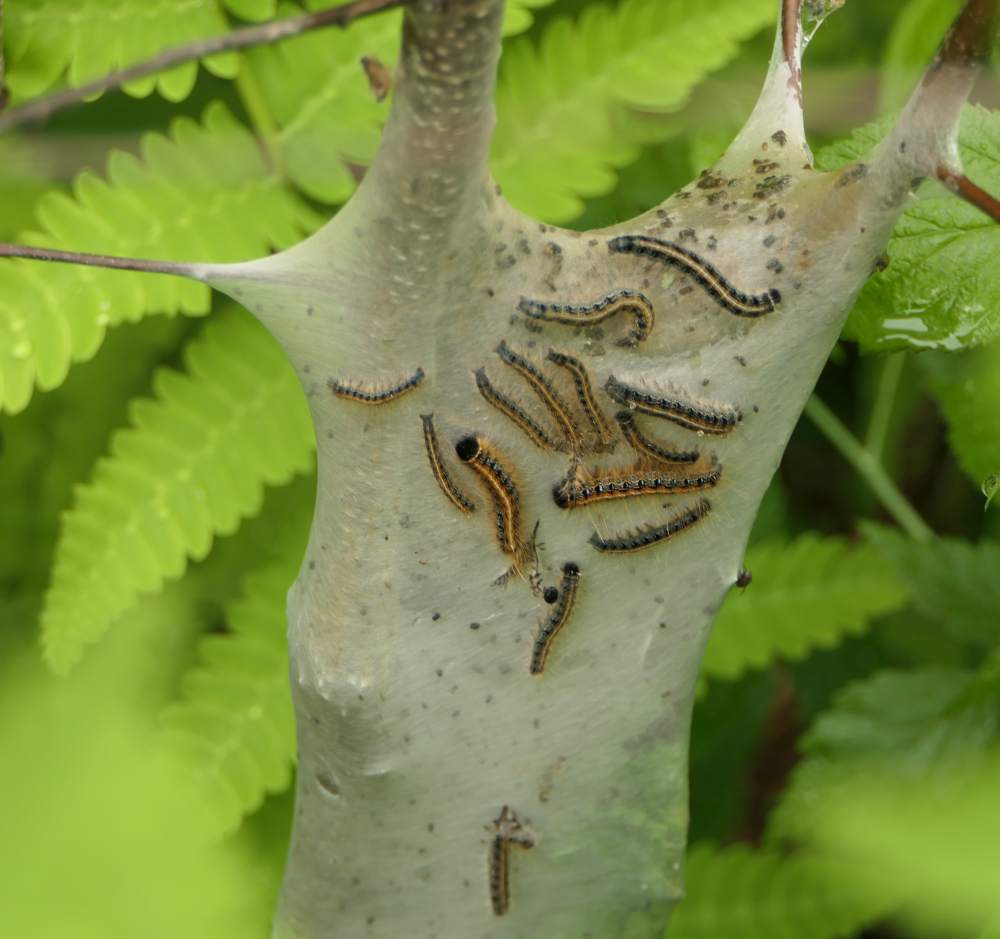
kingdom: Animalia
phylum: Arthropoda
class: Insecta
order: Lepidoptera
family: Lasiocampidae
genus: Malacosoma
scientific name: Malacosoma americana
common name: Eastern tent caterpillar moth
